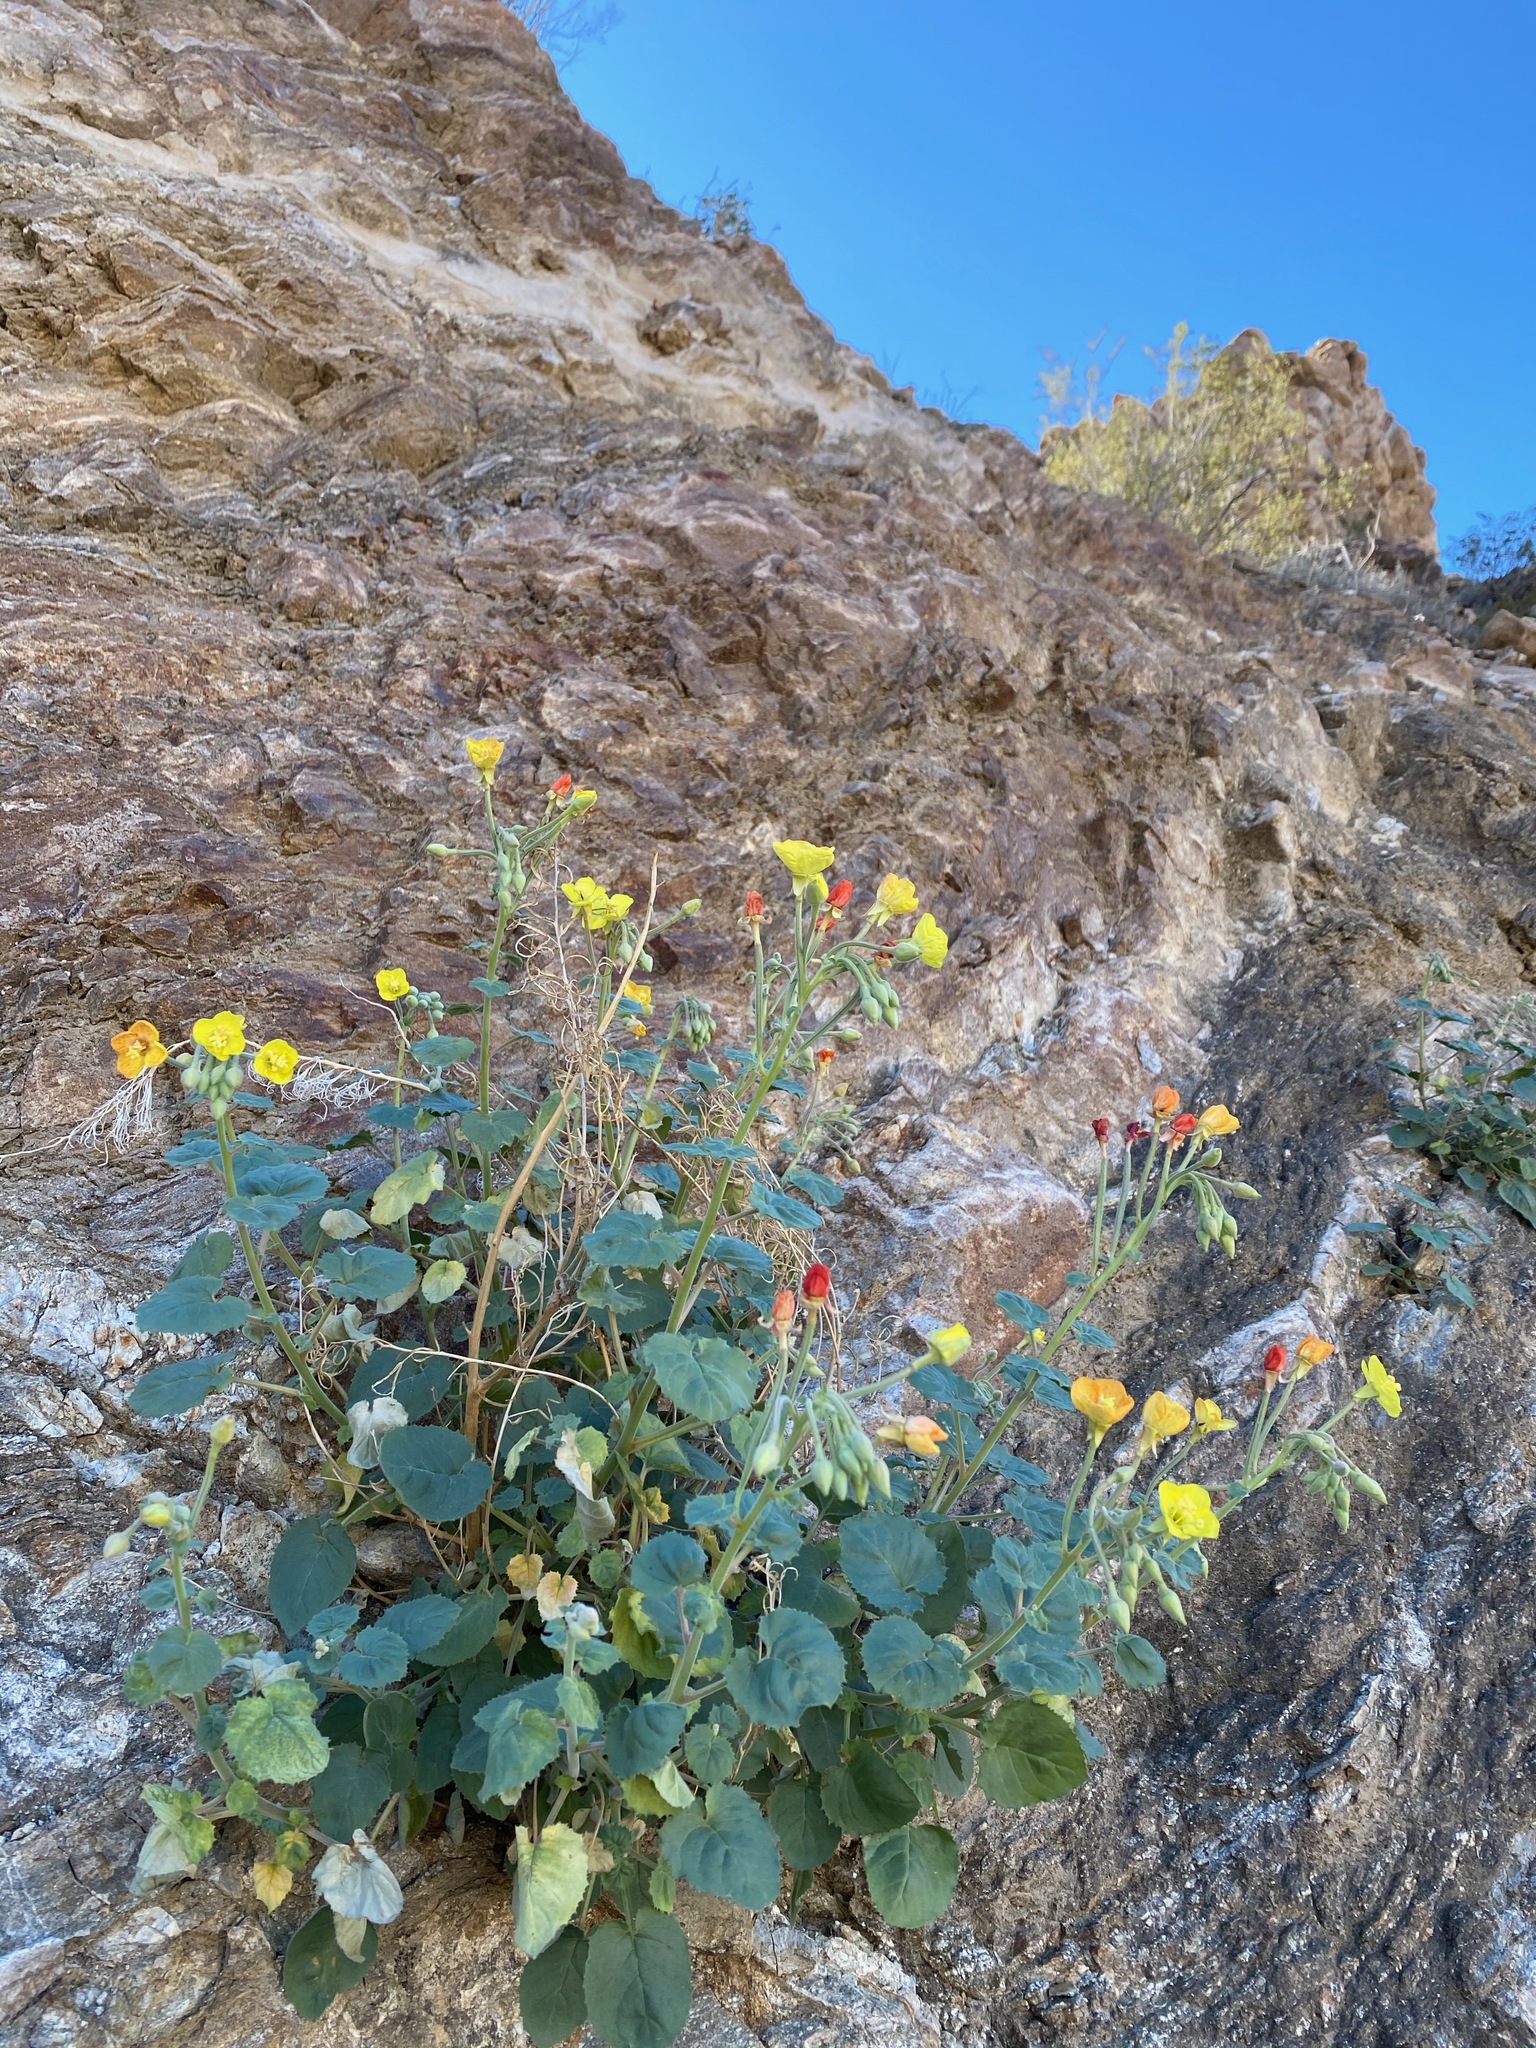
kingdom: Plantae
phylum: Tracheophyta
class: Magnoliopsida
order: Myrtales
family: Onagraceae
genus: Chylismia
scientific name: Chylismia cardiophylla
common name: Heartleaf suncup
